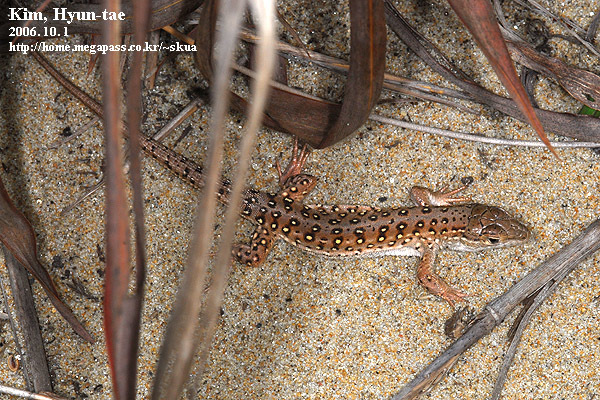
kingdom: Animalia
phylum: Chordata
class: Squamata
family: Lacertidae
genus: Eremias
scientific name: Eremias argus
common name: Mongolia racerunner
